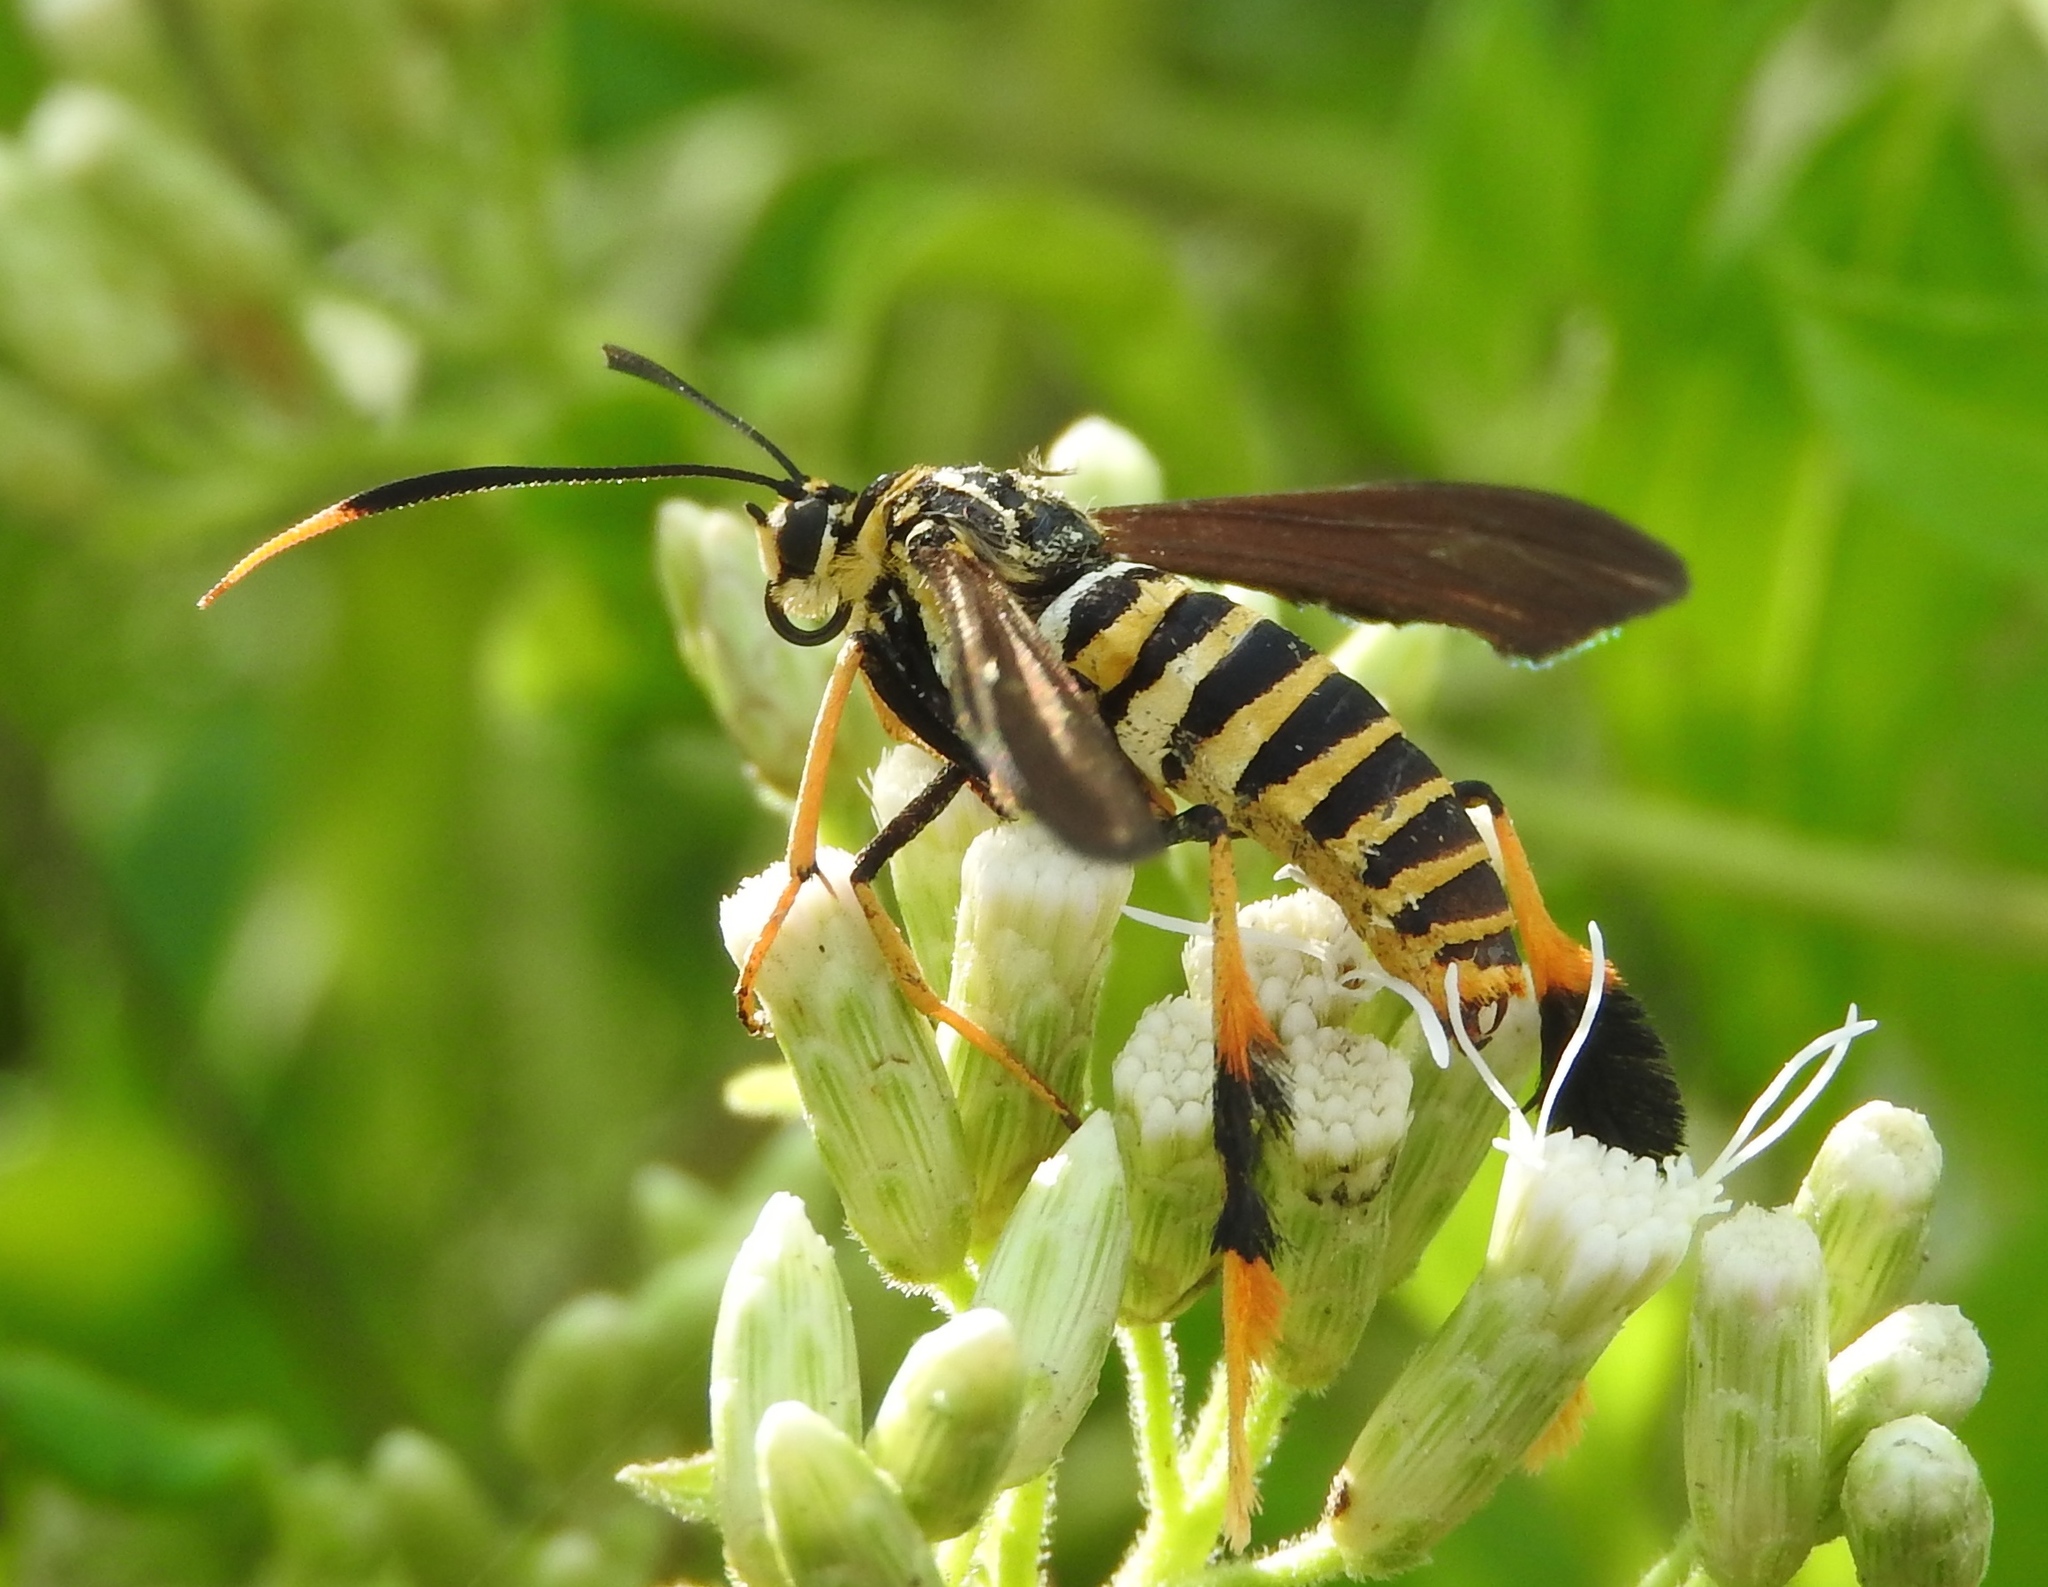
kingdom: Animalia
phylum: Arthropoda
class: Insecta
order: Lepidoptera
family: Erebidae
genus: Horama
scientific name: Horama panthalon
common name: Texas wasp moth
